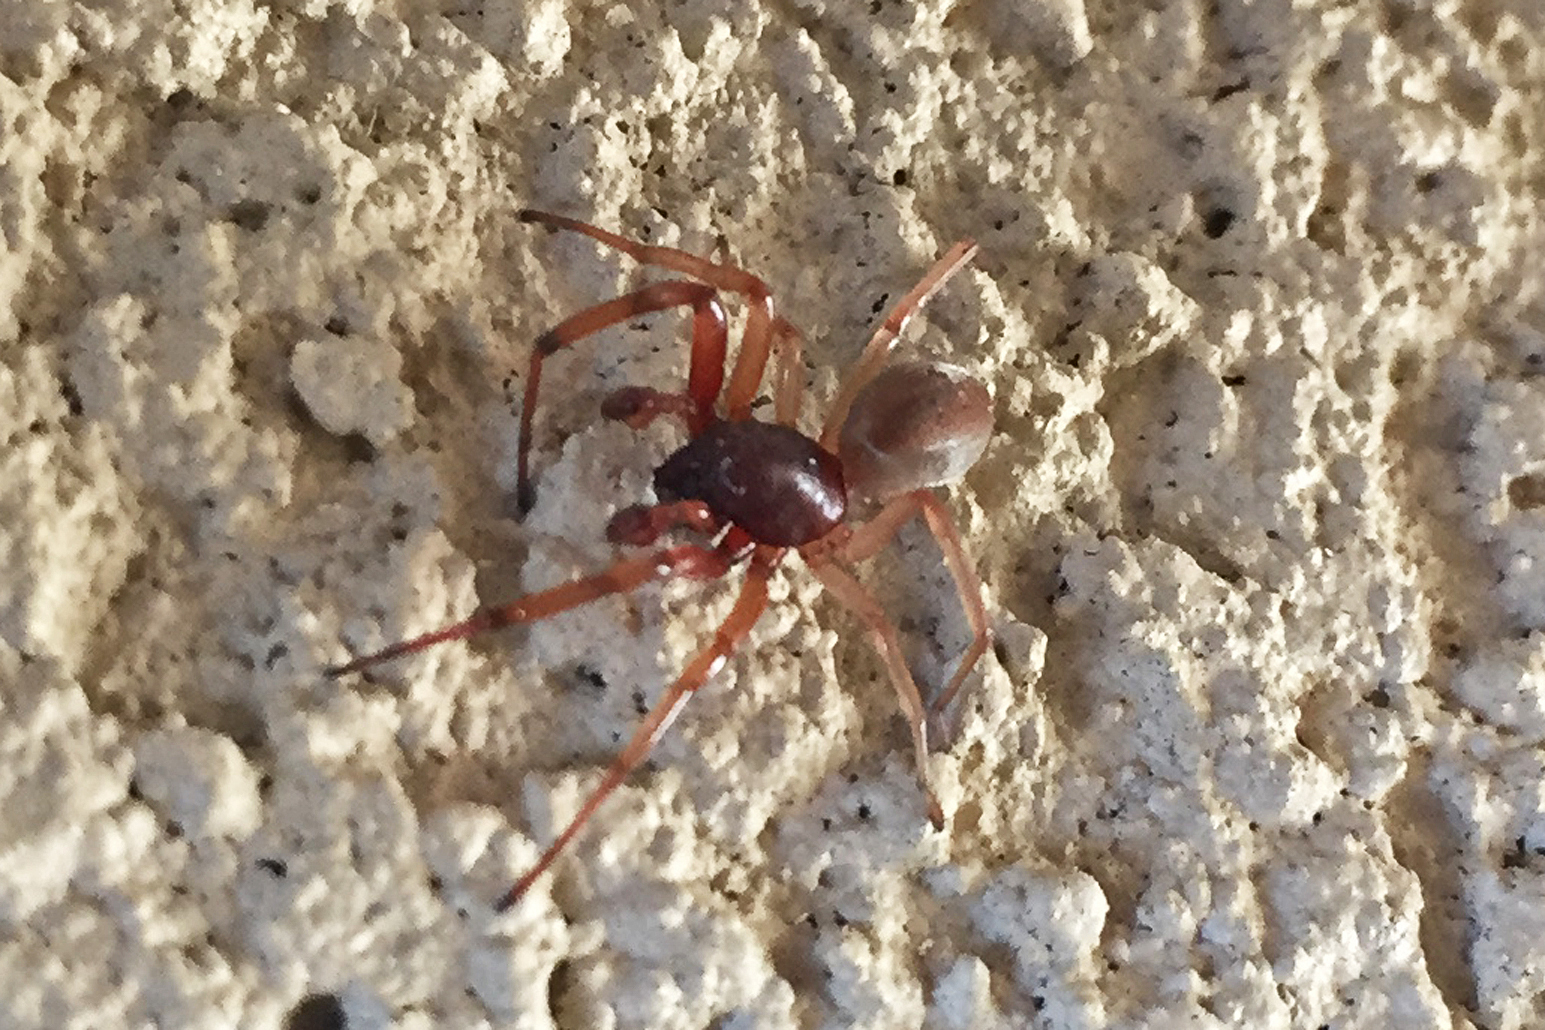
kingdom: Animalia
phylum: Arthropoda
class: Arachnida
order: Araneae
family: Trachelidae
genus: Trachelas
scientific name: Trachelas tranquillus
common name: Broad-faced sac spider
